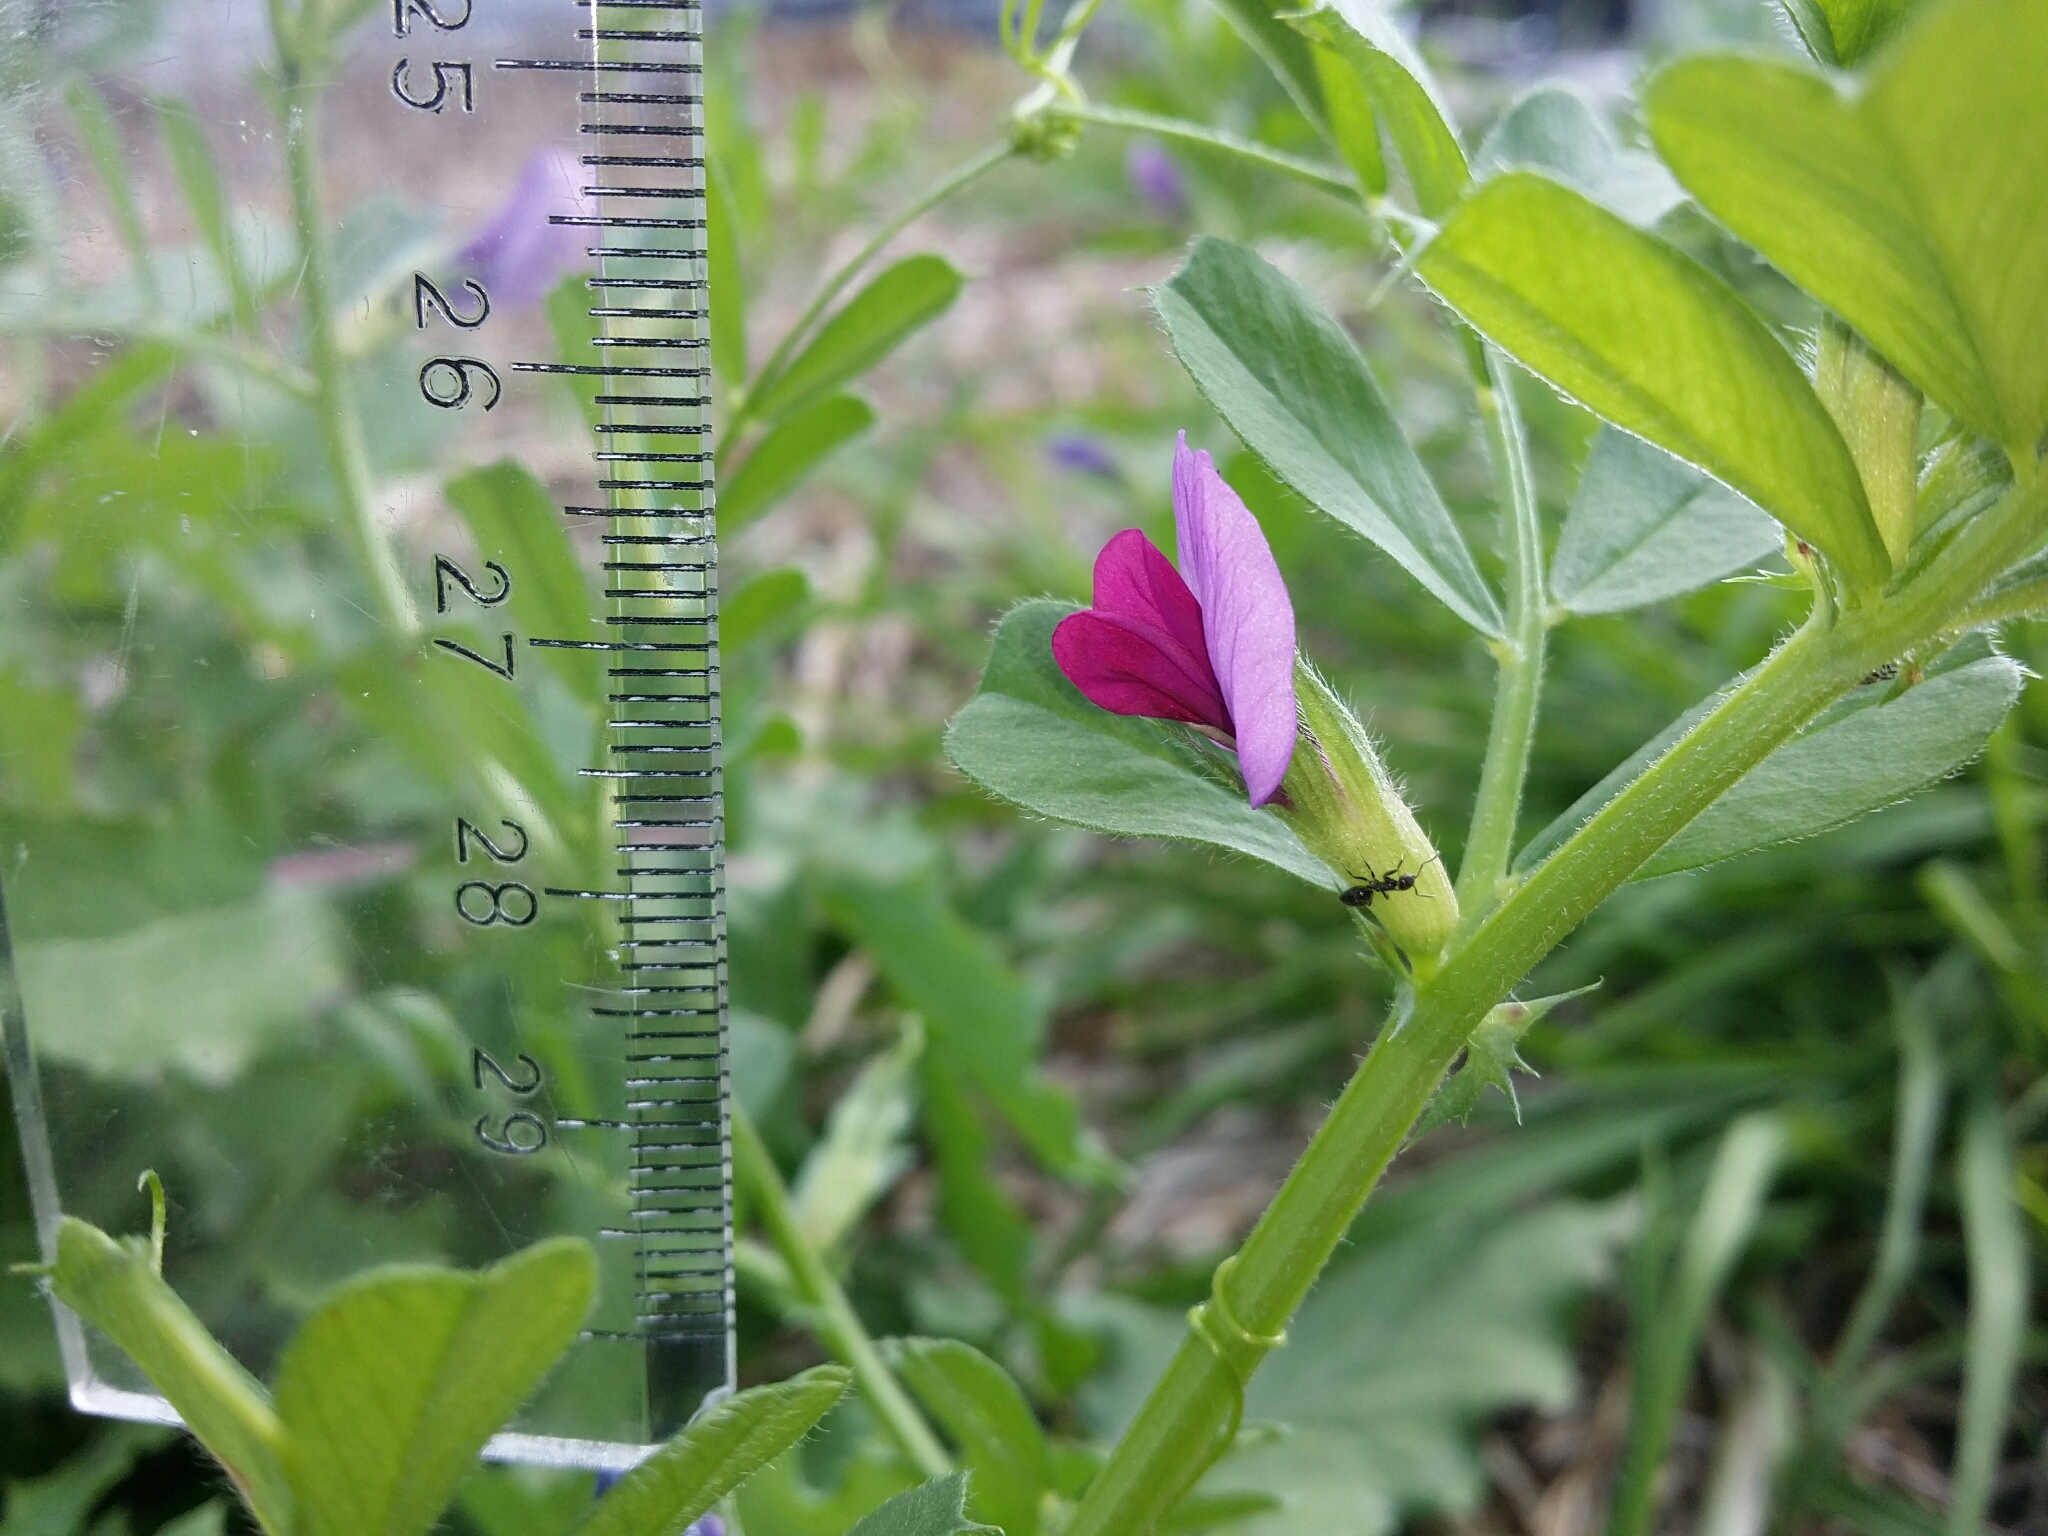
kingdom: Plantae
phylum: Tracheophyta
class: Magnoliopsida
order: Fabales
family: Fabaceae
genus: Vicia
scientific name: Vicia sativa
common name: Garden vetch
